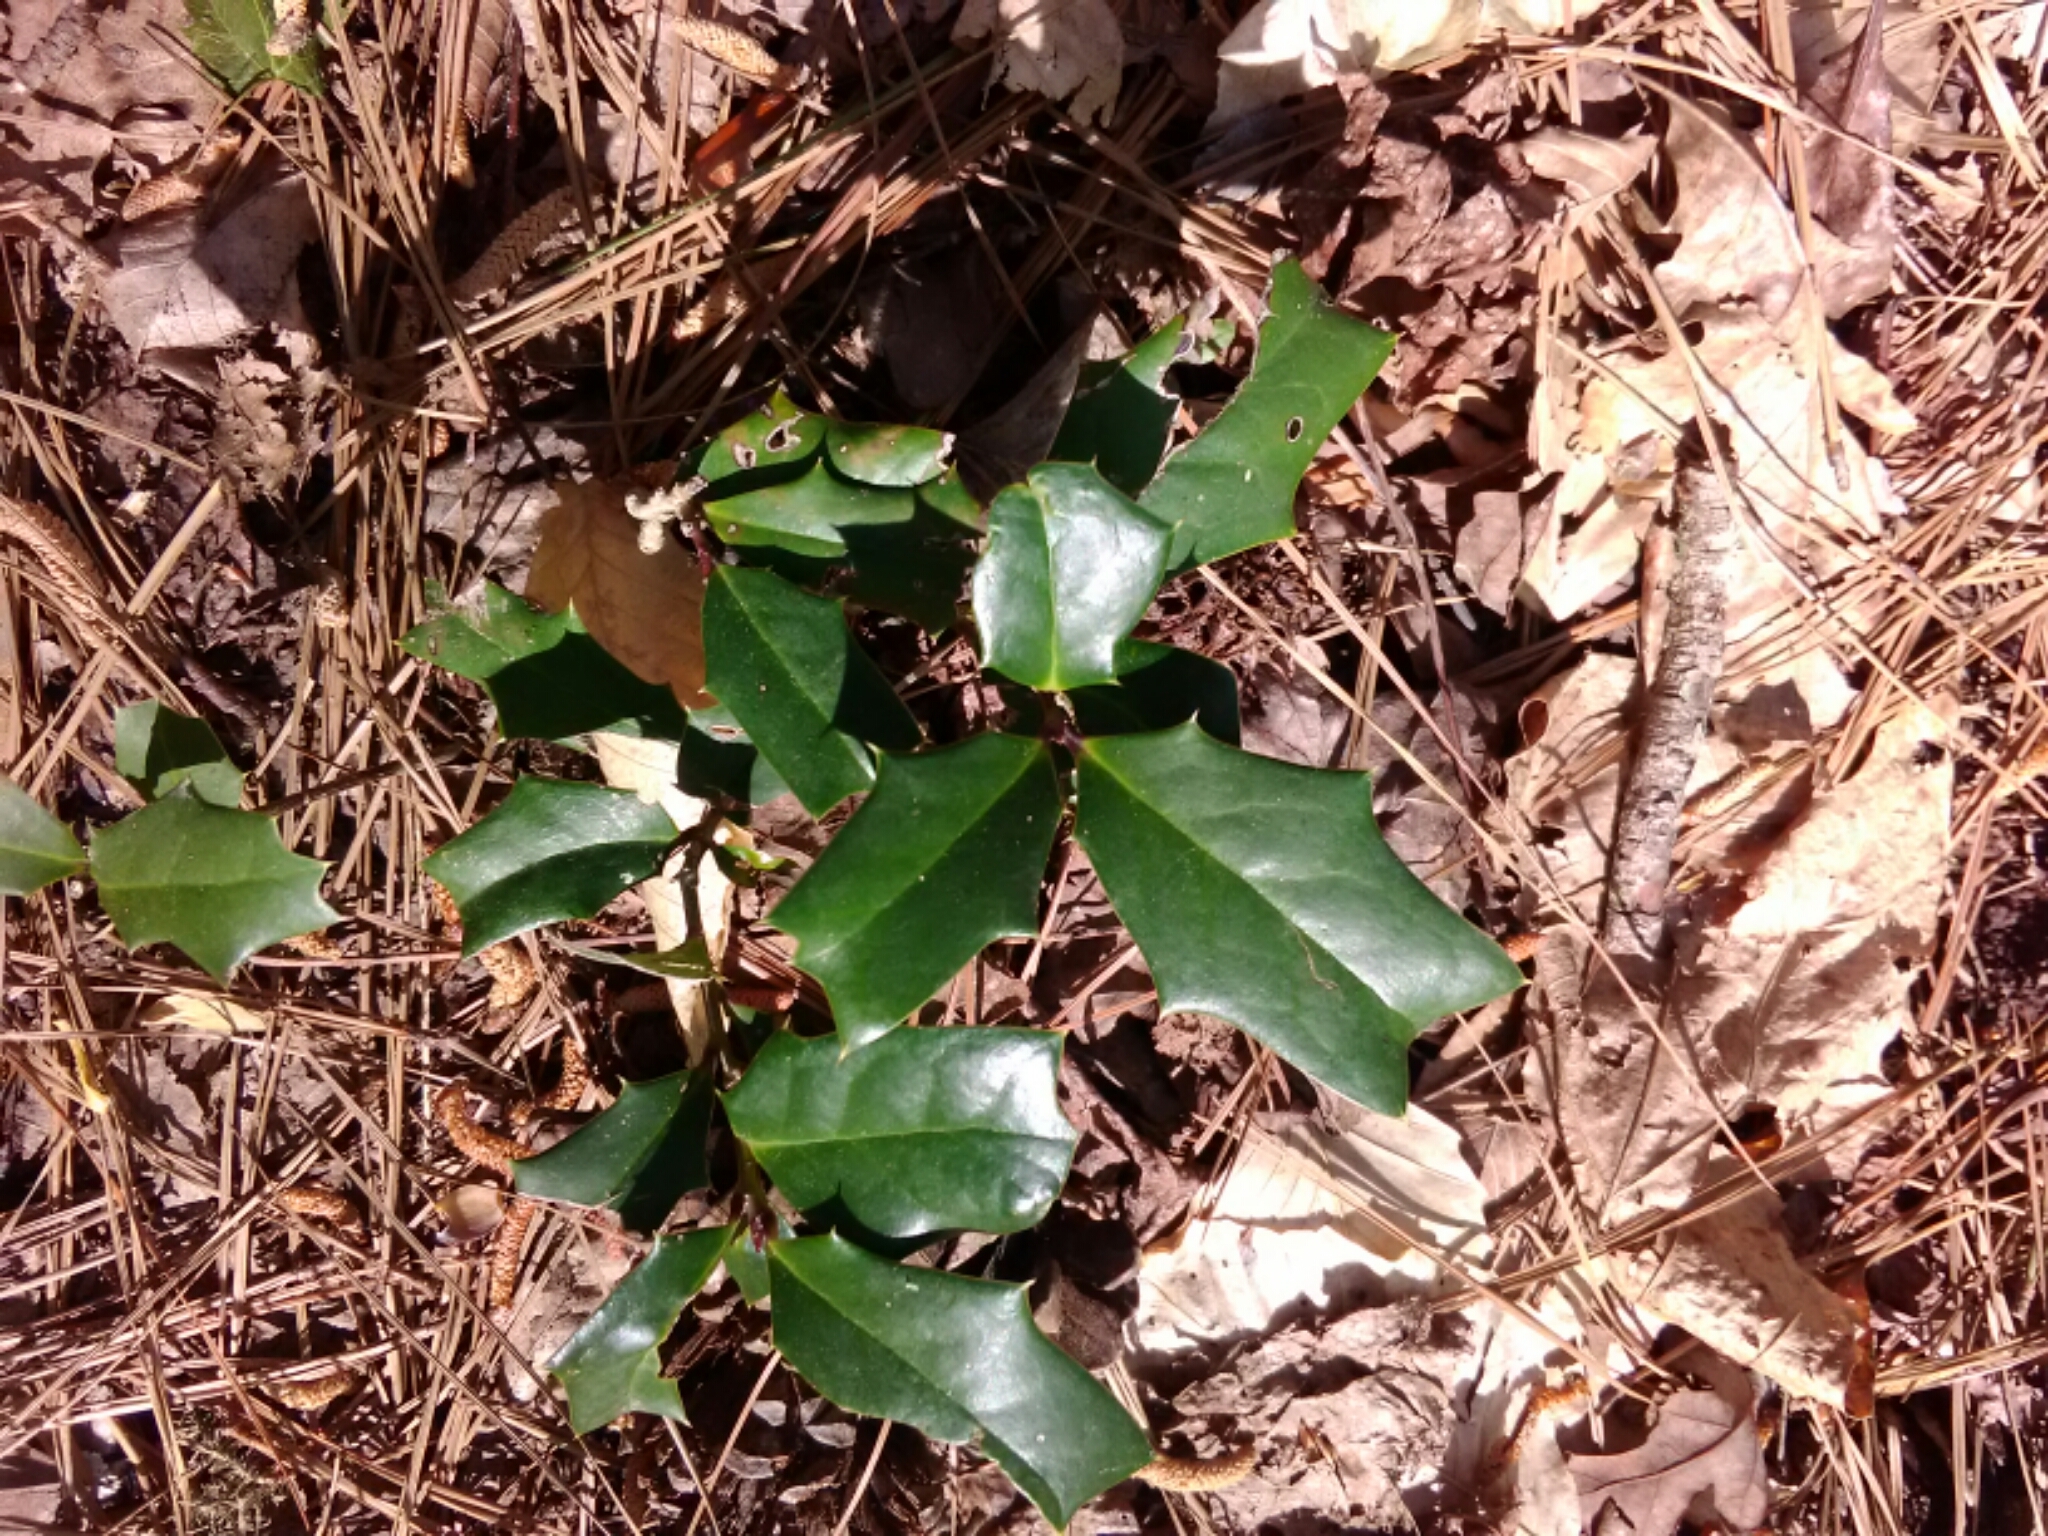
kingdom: Plantae
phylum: Tracheophyta
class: Magnoliopsida
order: Aquifoliales
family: Aquifoliaceae
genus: Ilex
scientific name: Ilex opaca
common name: American holly
